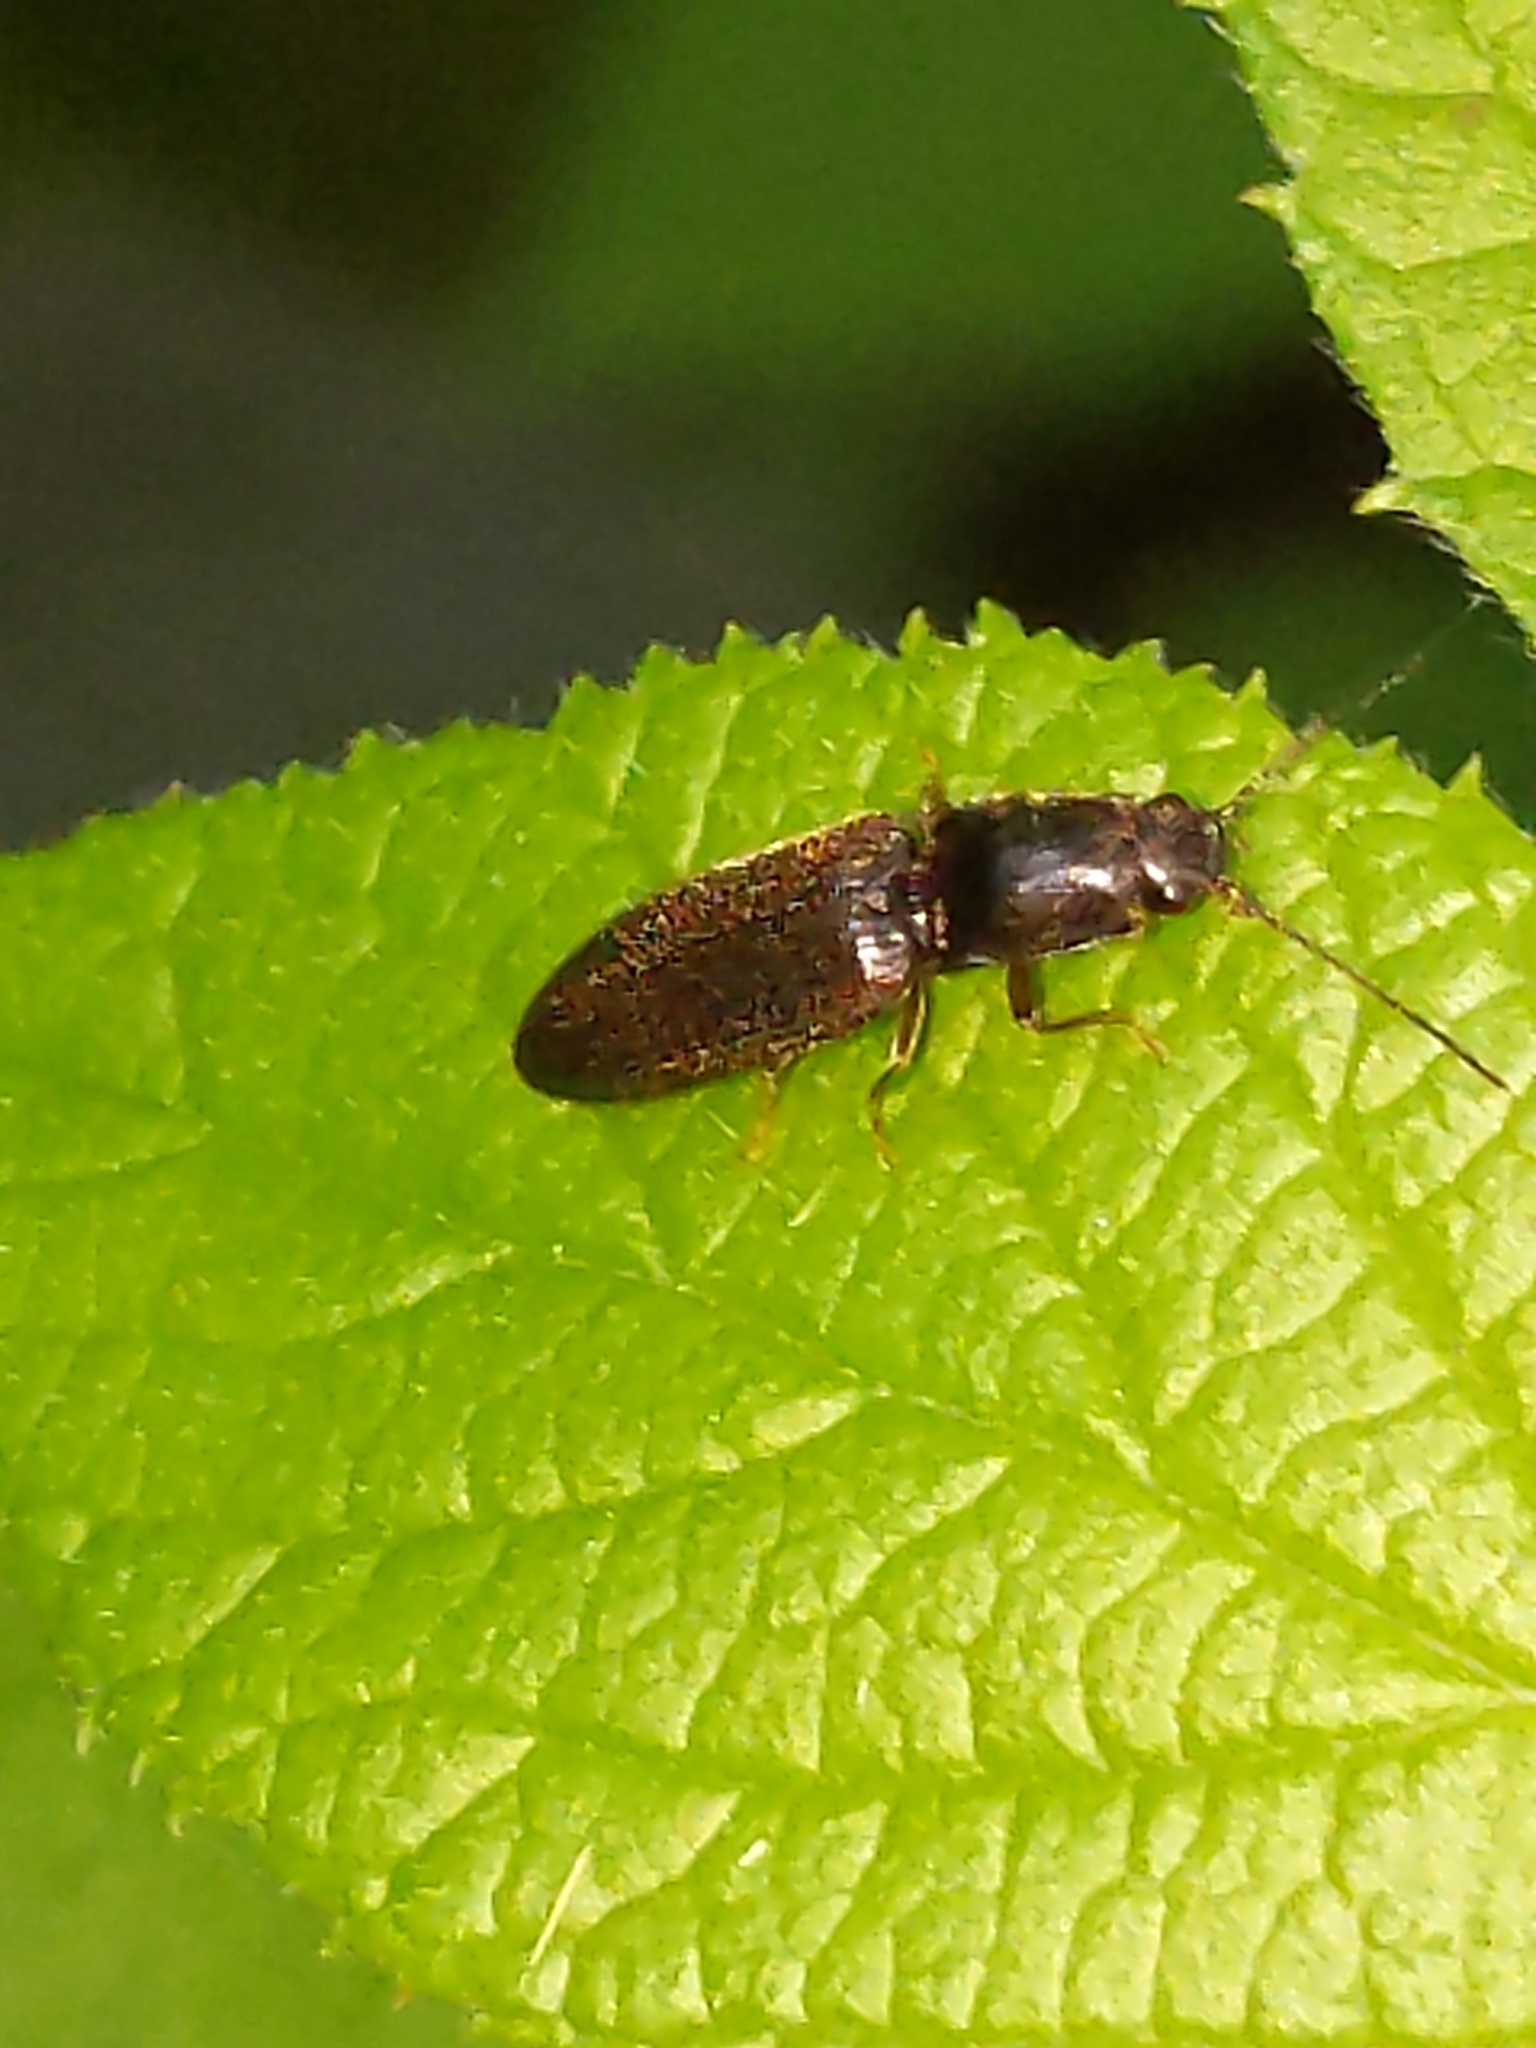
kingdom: Animalia
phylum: Arthropoda
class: Insecta
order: Coleoptera
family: Elateridae
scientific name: Elateridae
